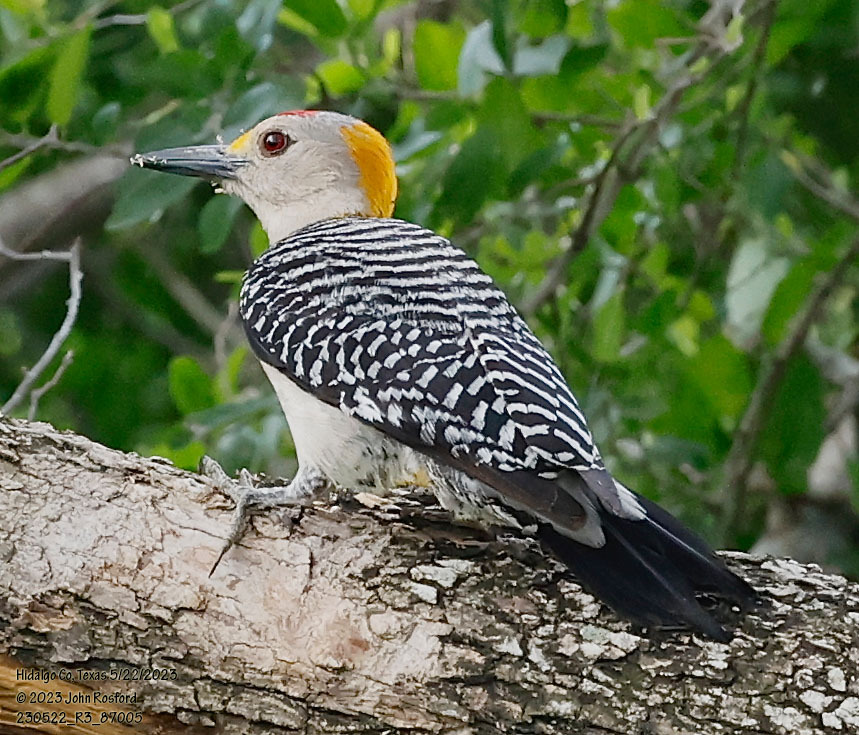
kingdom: Animalia
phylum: Chordata
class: Aves
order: Piciformes
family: Picidae
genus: Melanerpes
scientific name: Melanerpes aurifrons
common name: Golden-fronted woodpecker
